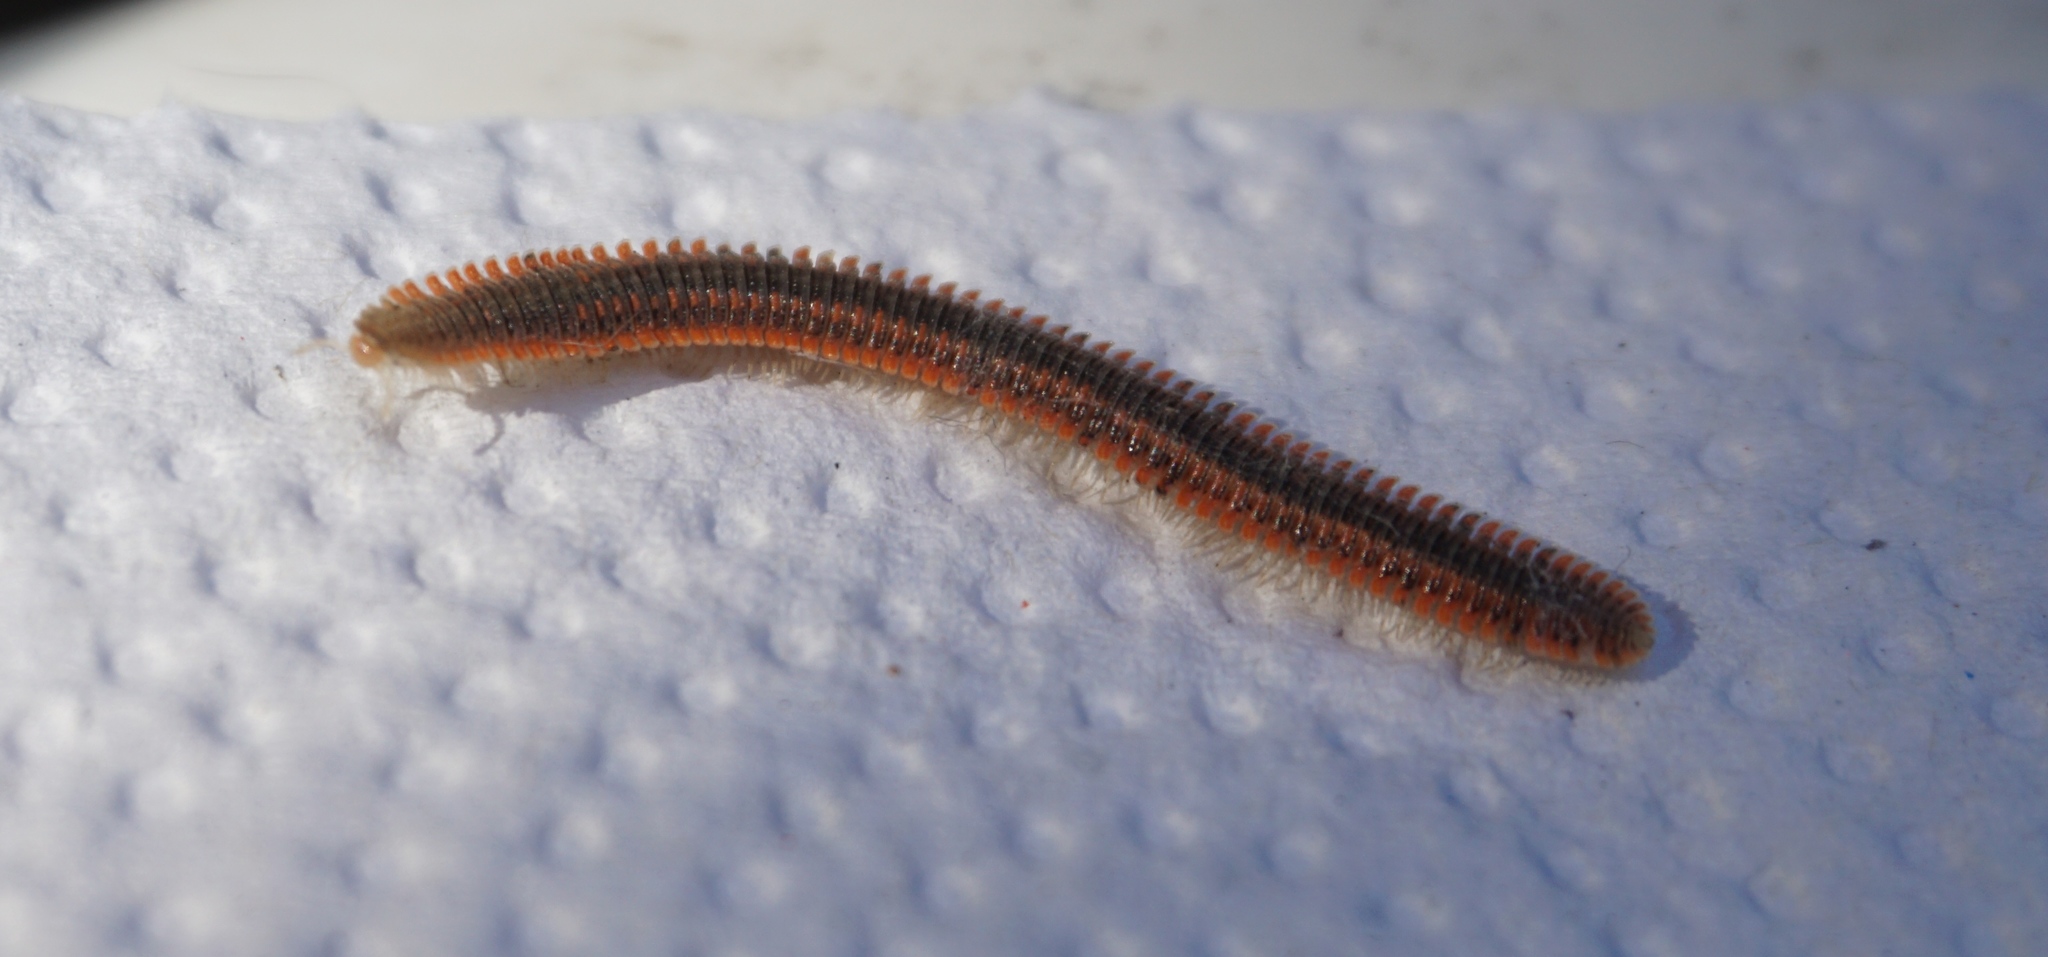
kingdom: Animalia
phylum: Arthropoda
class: Diplopoda
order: Platydesmida
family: Andrognathidae
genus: Brachycybe
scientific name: Brachycybe producta
